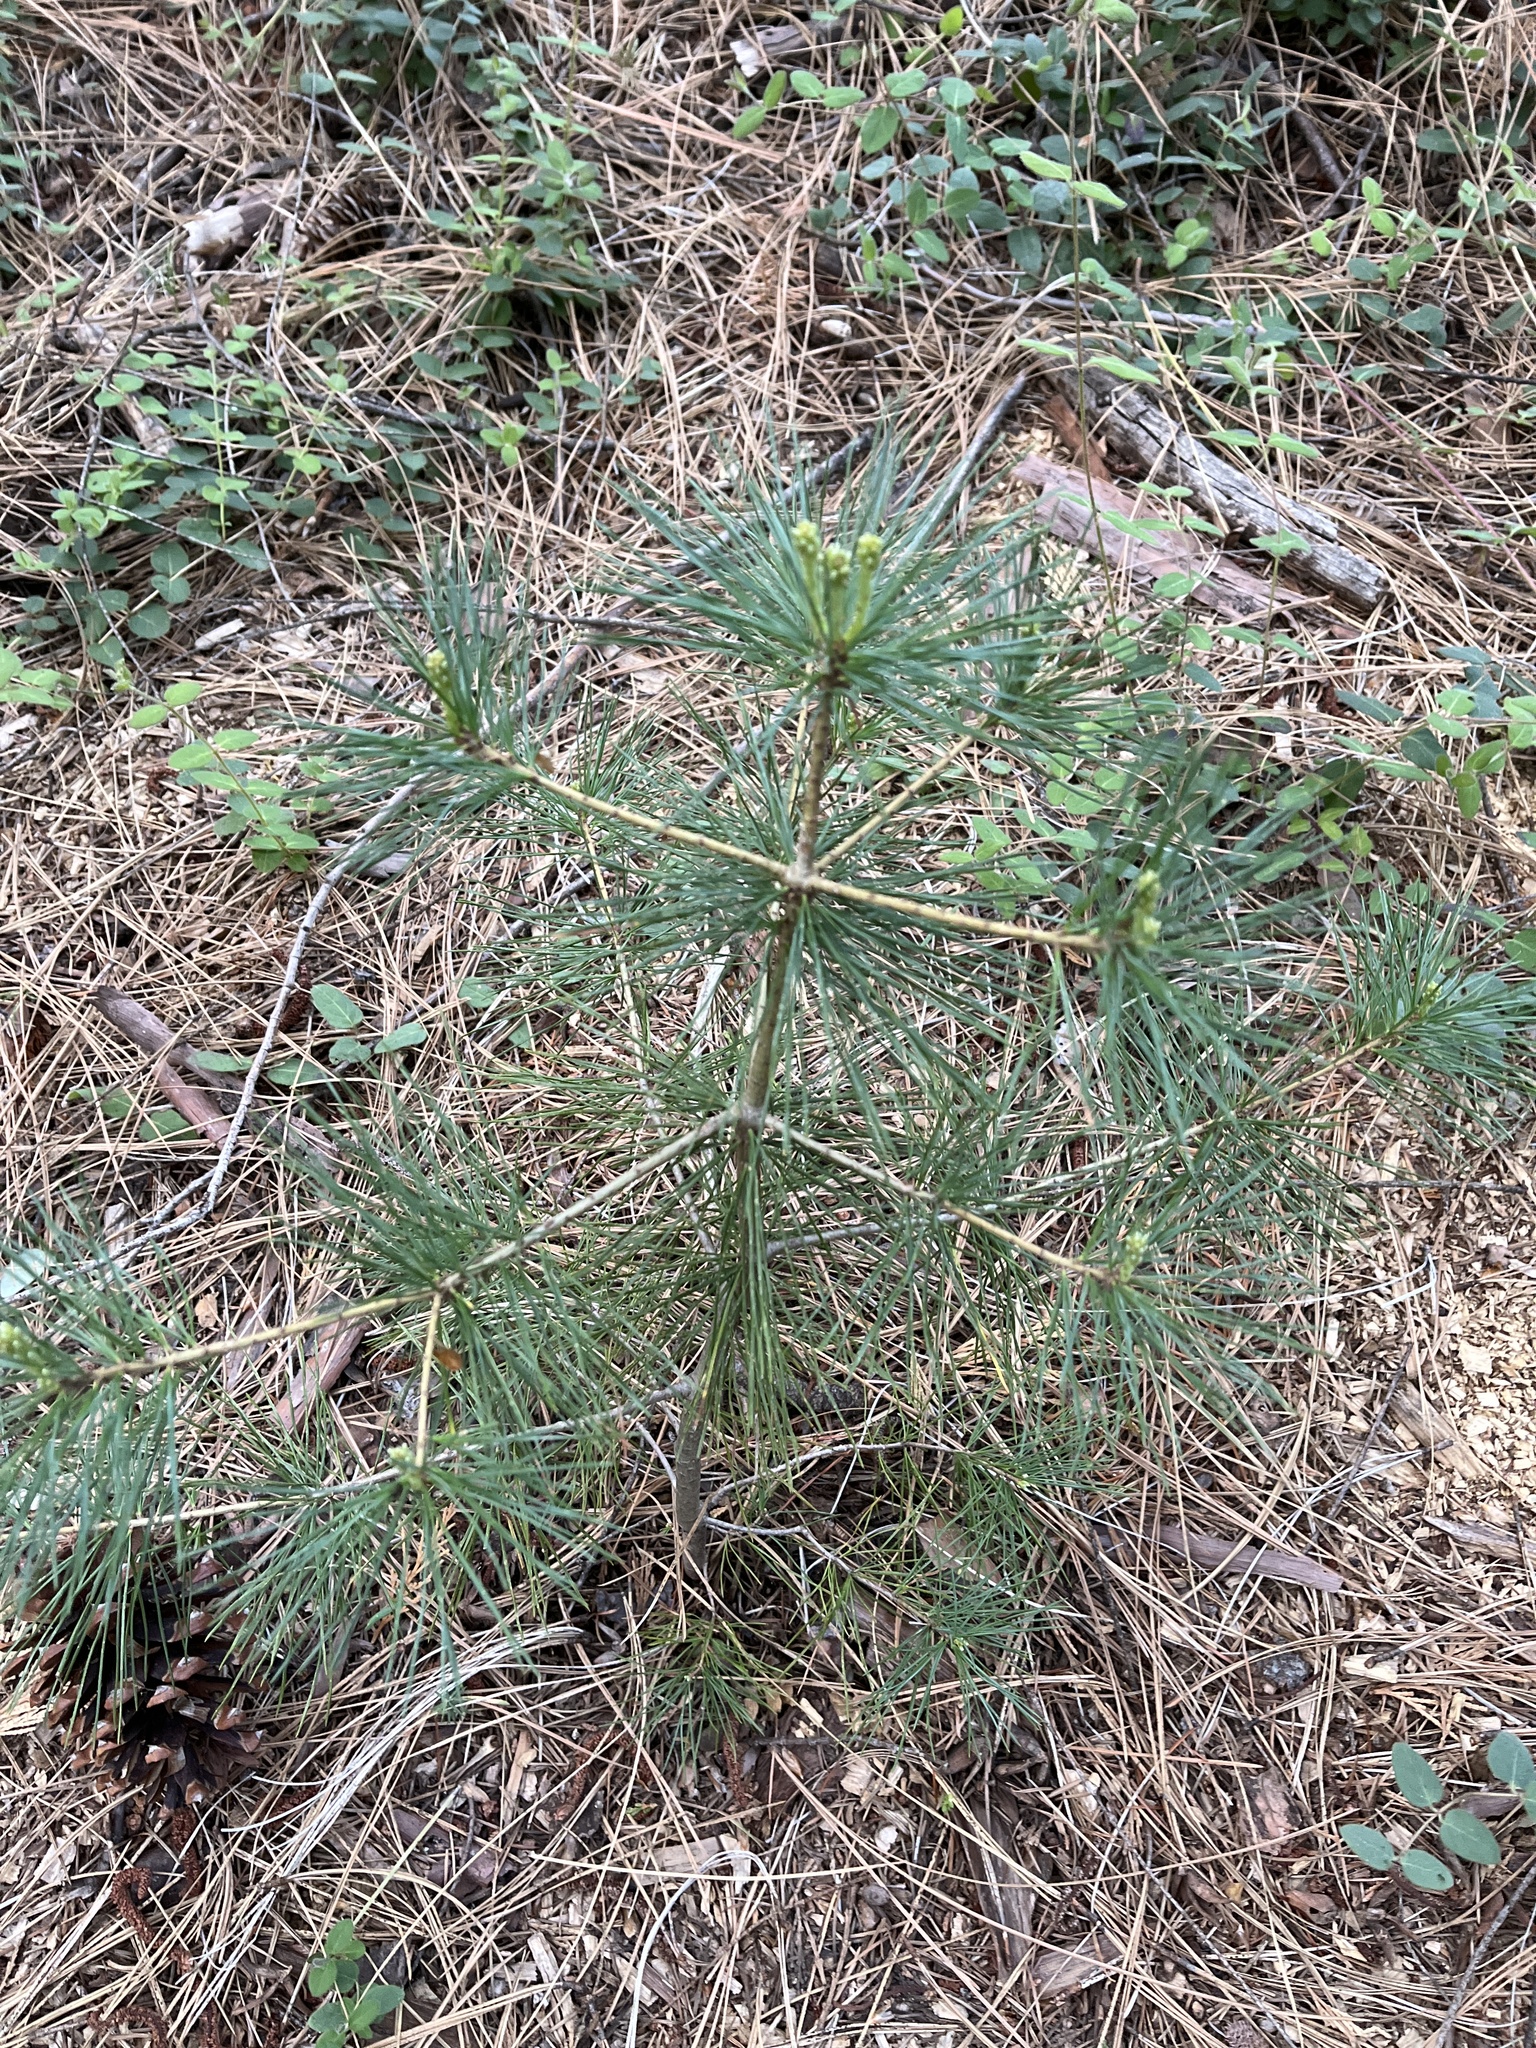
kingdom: Plantae
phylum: Tracheophyta
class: Pinopsida
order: Pinales
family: Pinaceae
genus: Pinus
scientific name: Pinus lambertiana
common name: Sugar pine
